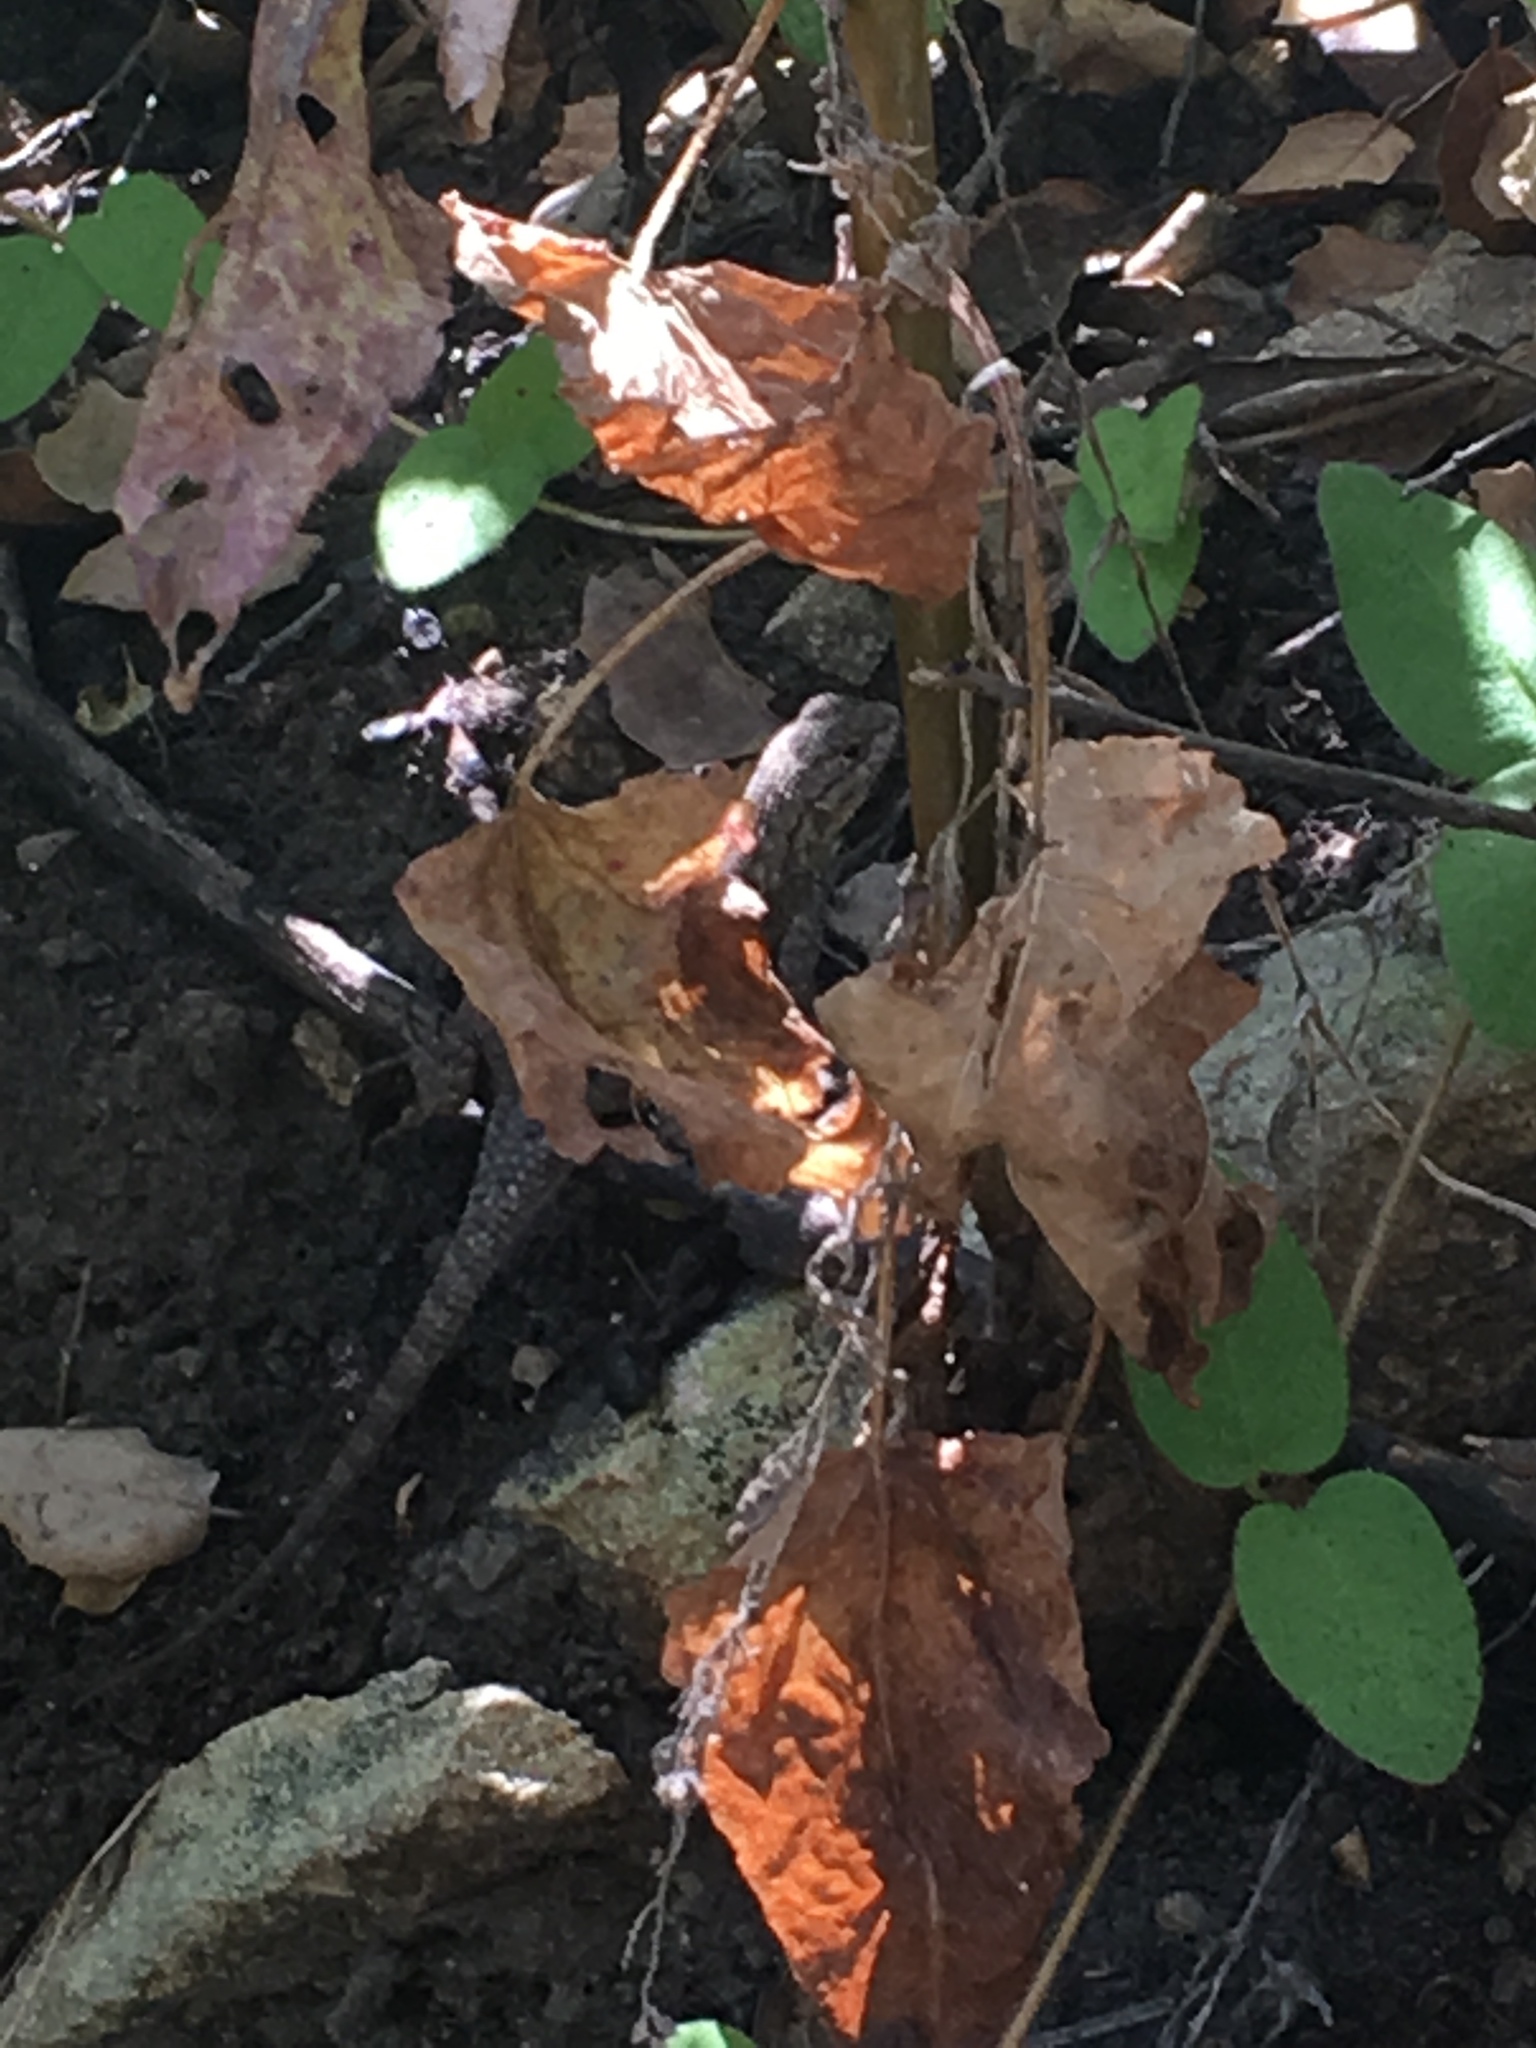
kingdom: Animalia
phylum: Chordata
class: Squamata
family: Phrynosomatidae
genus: Sceloporus
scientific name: Sceloporus occidentalis
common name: Western fence lizard
